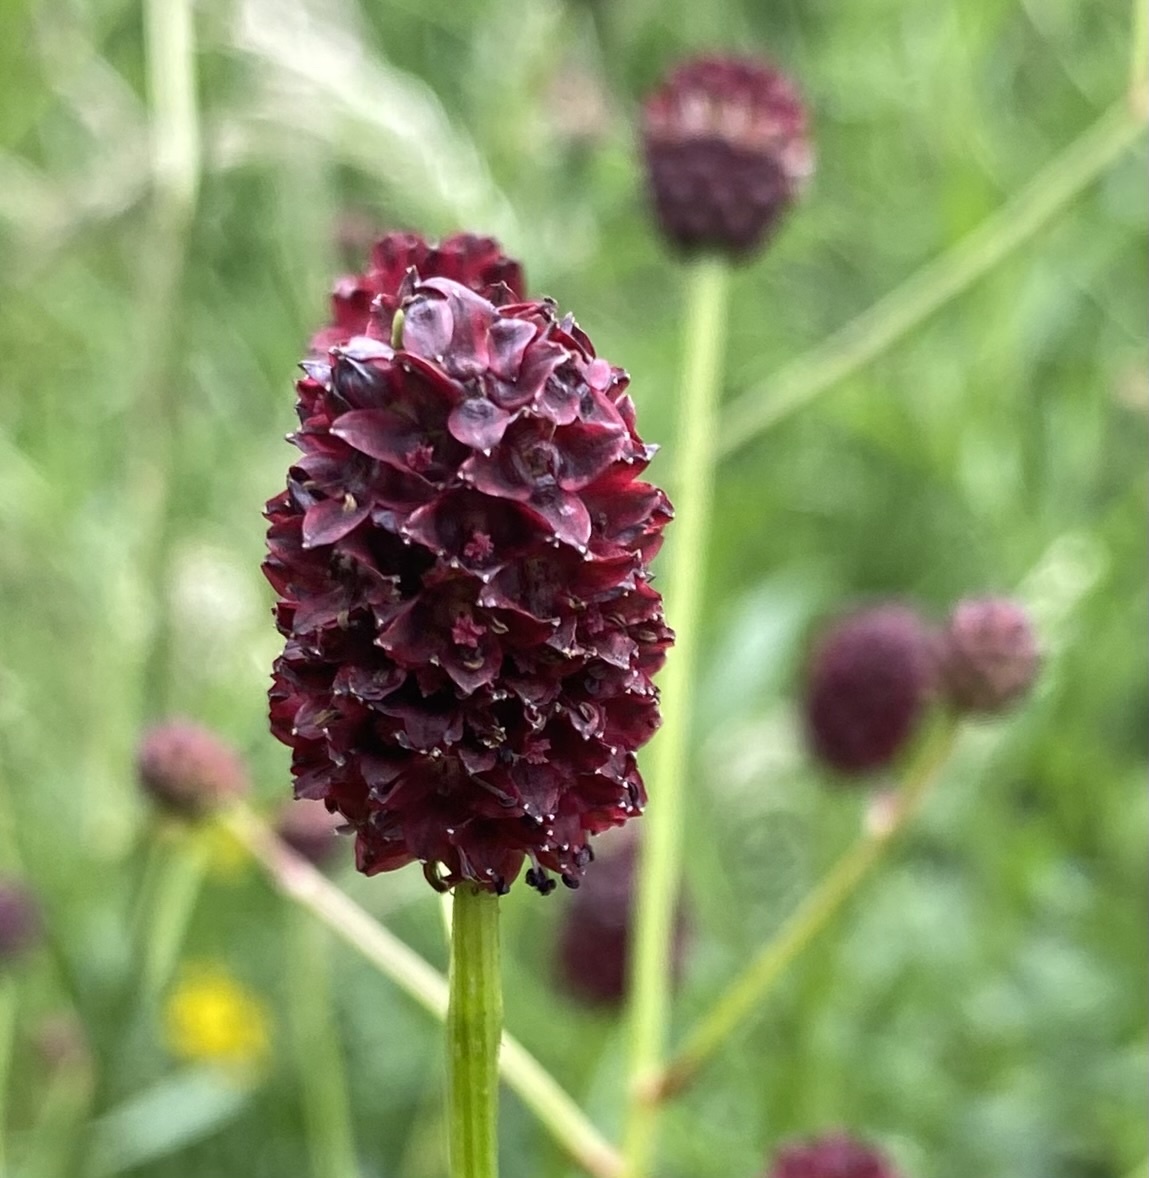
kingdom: Plantae
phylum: Tracheophyta
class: Magnoliopsida
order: Rosales
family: Rosaceae
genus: Sanguisorba
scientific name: Sanguisorba officinalis
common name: Great burnet
